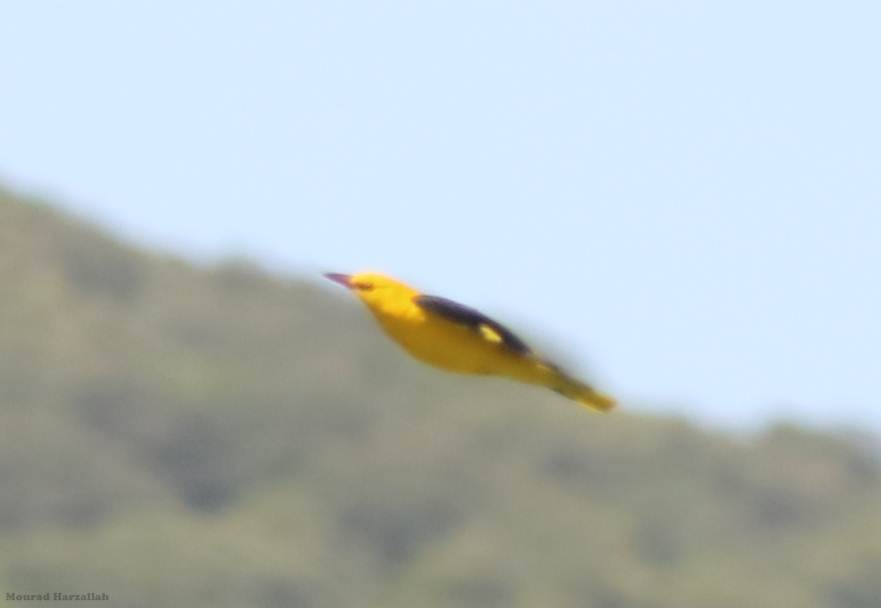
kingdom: Animalia
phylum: Chordata
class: Aves
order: Passeriformes
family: Oriolidae
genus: Oriolus
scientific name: Oriolus oriolus
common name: Eurasian golden oriole
